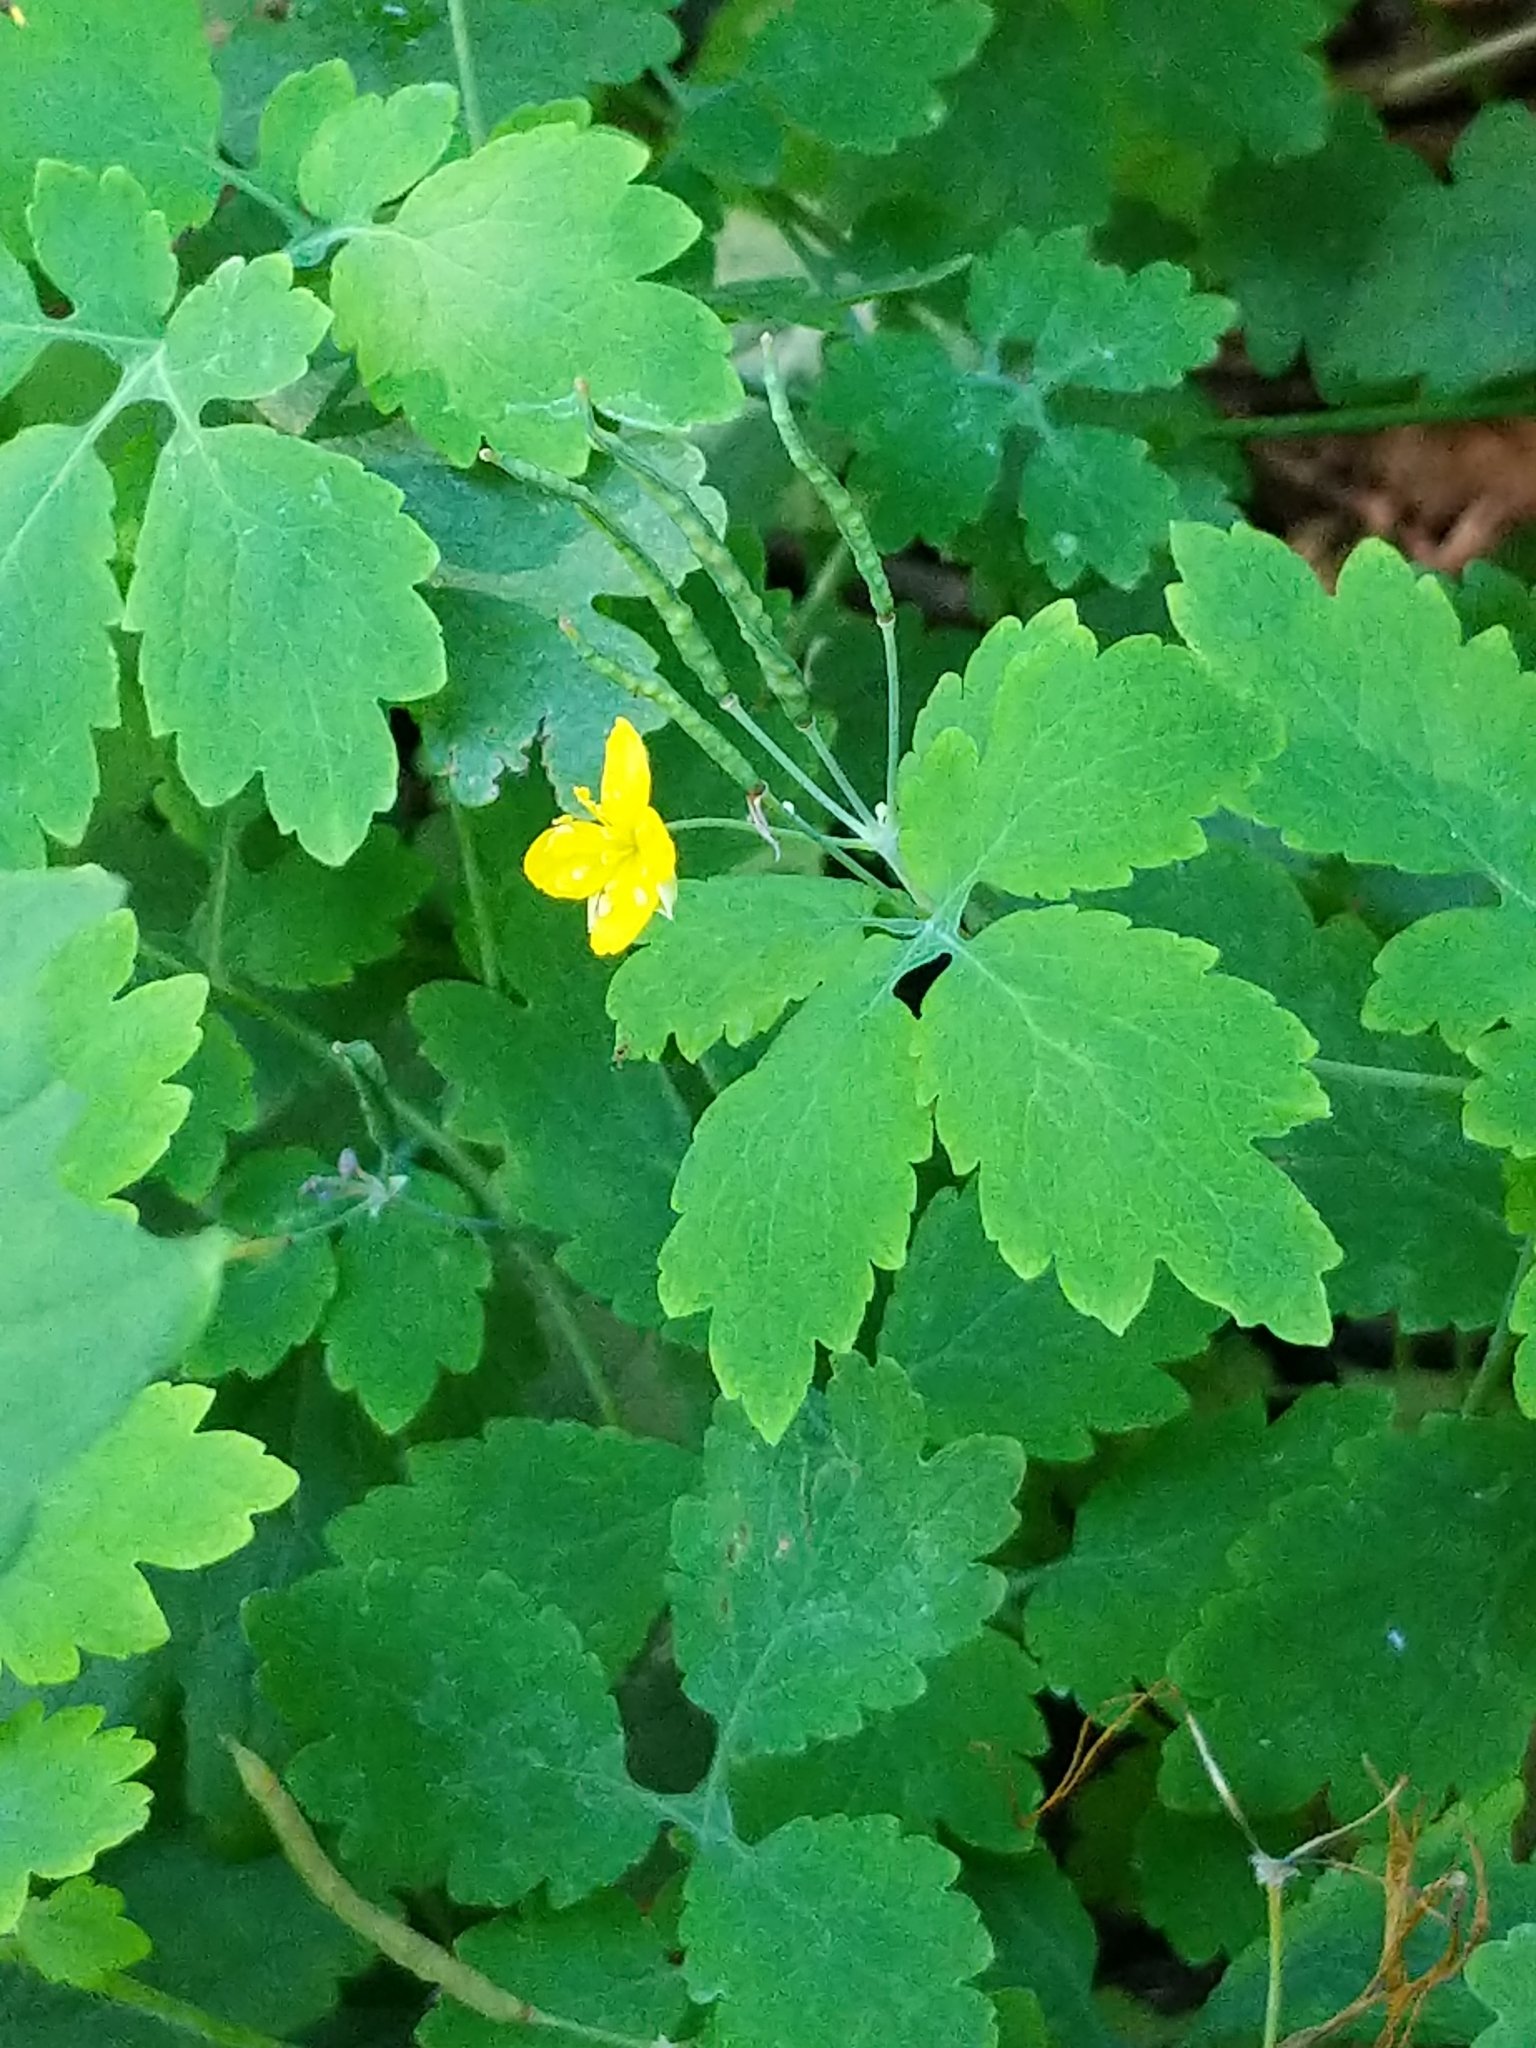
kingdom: Plantae
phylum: Tracheophyta
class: Magnoliopsida
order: Ranunculales
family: Papaveraceae
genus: Chelidonium
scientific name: Chelidonium majus
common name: Greater celandine
